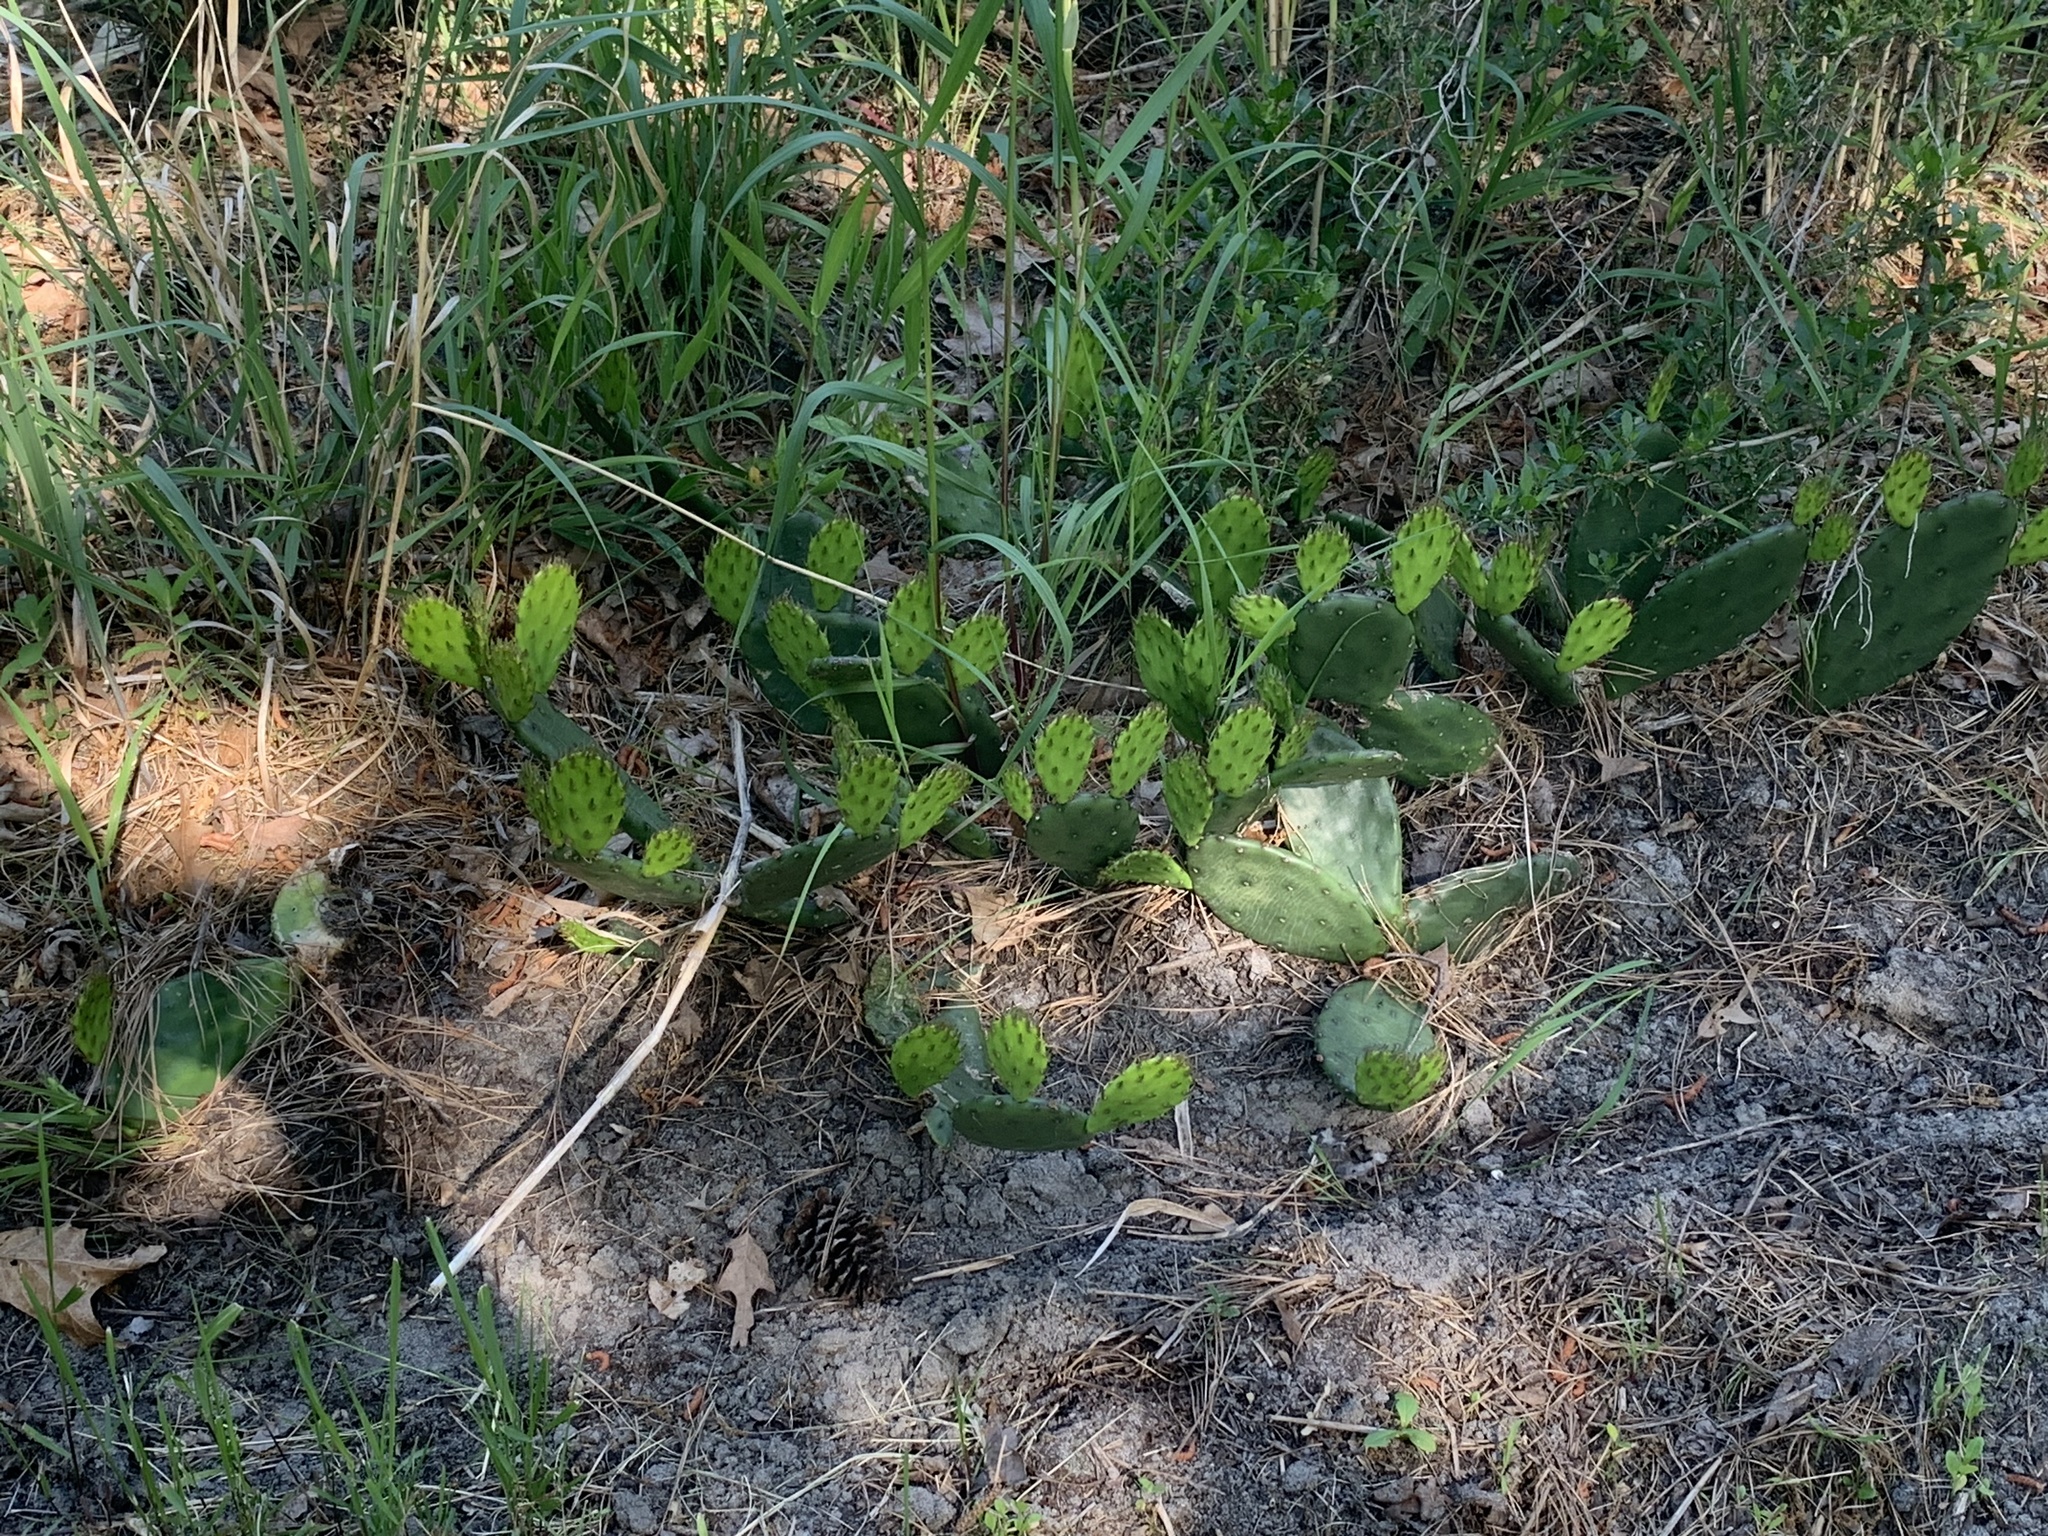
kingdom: Plantae
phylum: Tracheophyta
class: Magnoliopsida
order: Caryophyllales
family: Cactaceae
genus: Opuntia
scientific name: Opuntia humifusa
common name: Eastern prickly-pear
